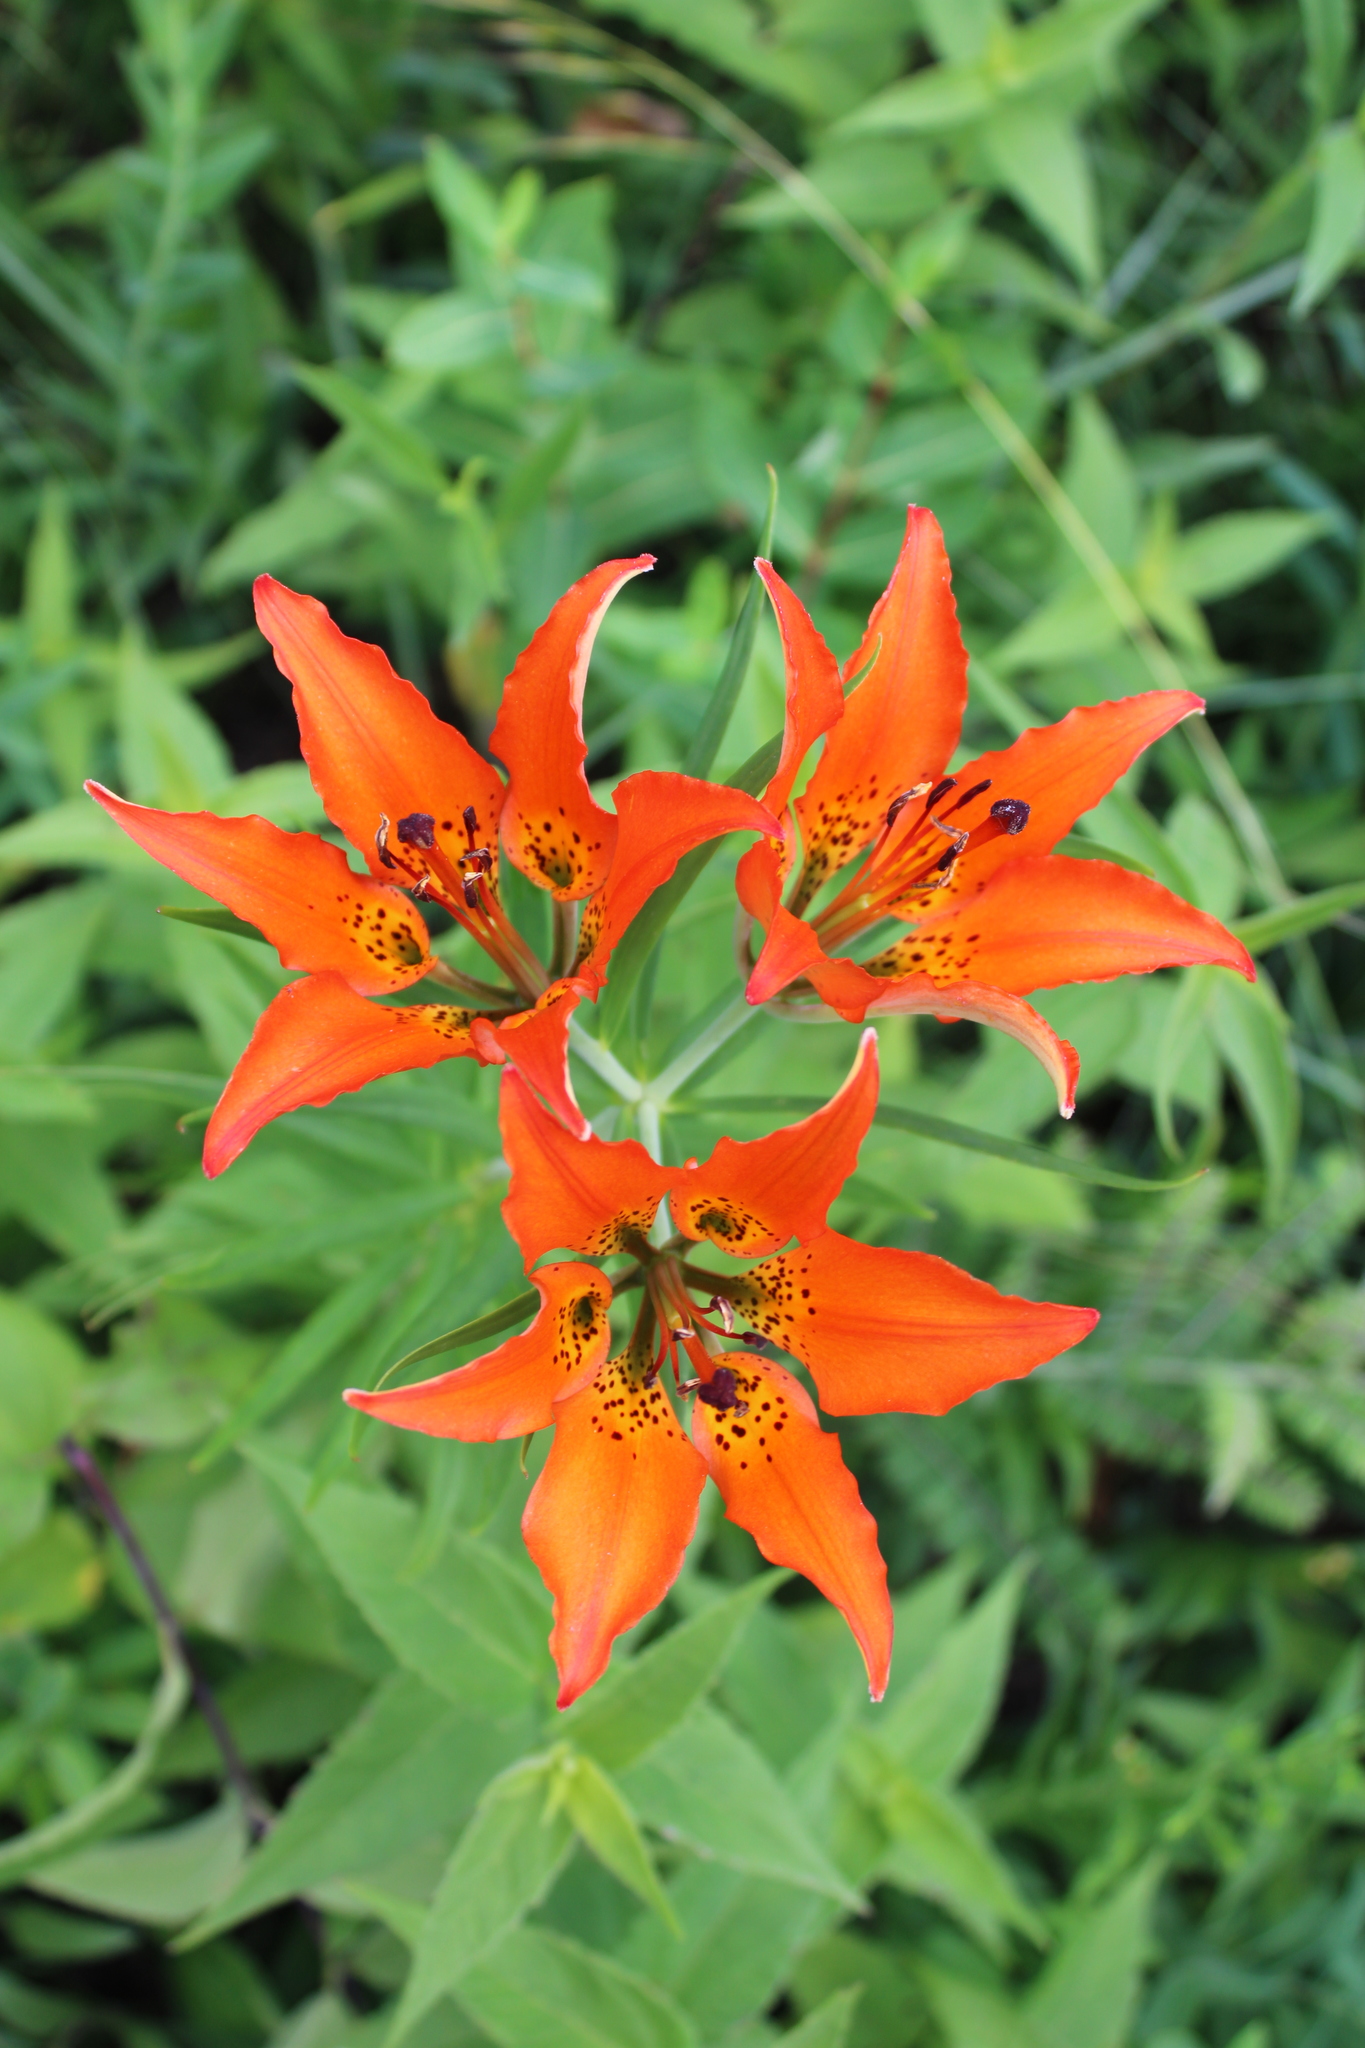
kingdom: Plantae
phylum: Tracheophyta
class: Liliopsida
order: Liliales
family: Liliaceae
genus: Lilium
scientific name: Lilium philadelphicum
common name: Red lily
